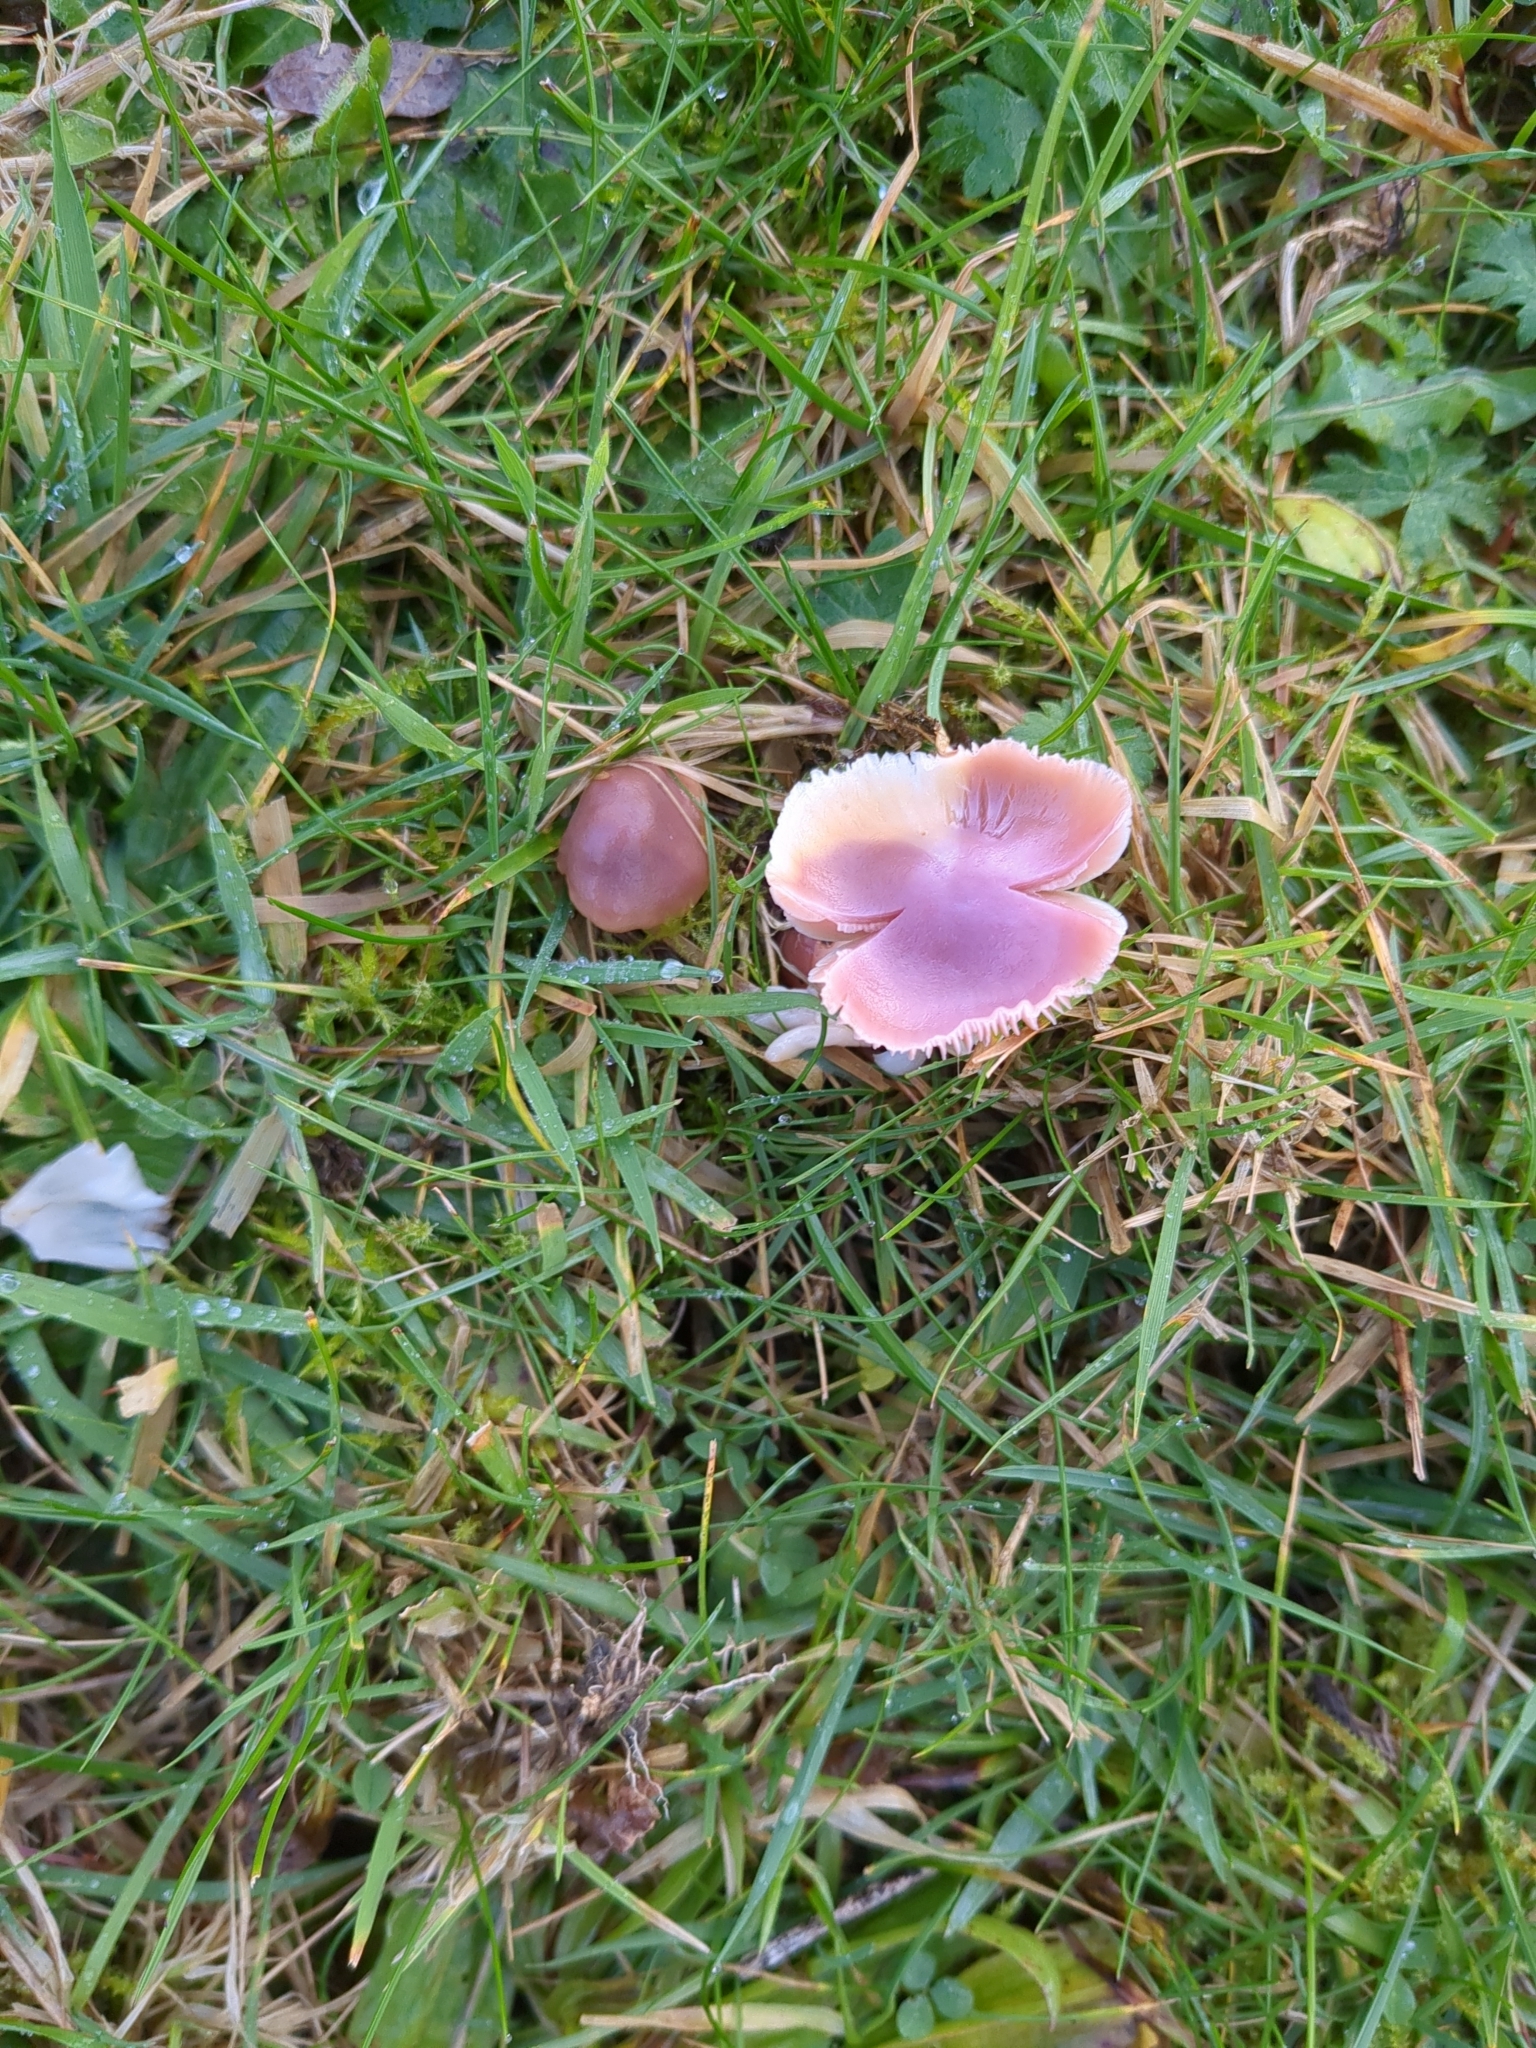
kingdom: Fungi
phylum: Basidiomycota
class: Agaricomycetes
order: Agaricales
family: Hygrophoraceae
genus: Gliophorus
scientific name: Gliophorus reginae
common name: Jubilee waxcap
